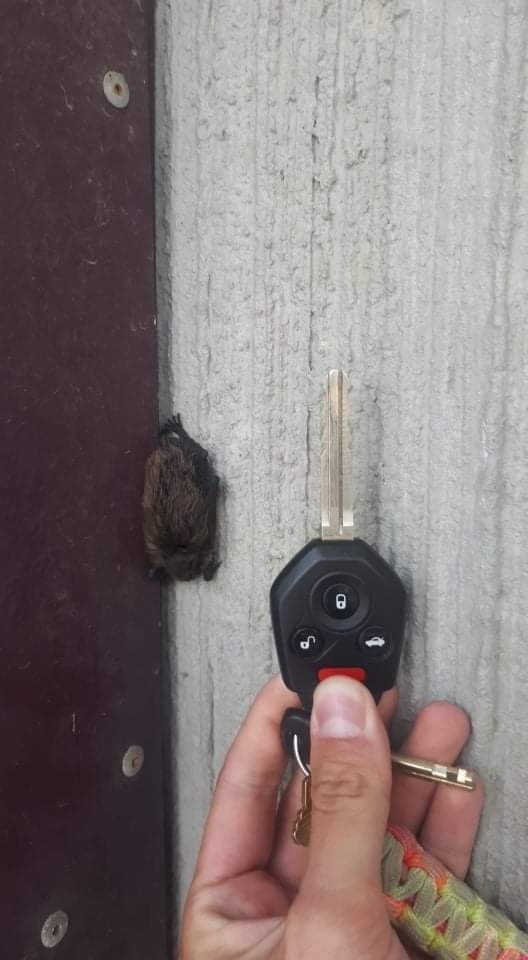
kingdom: Animalia
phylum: Chordata
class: Mammalia
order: Chiroptera
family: Vespertilionidae
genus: Myotis
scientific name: Myotis lucifugus
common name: Little brown bat
